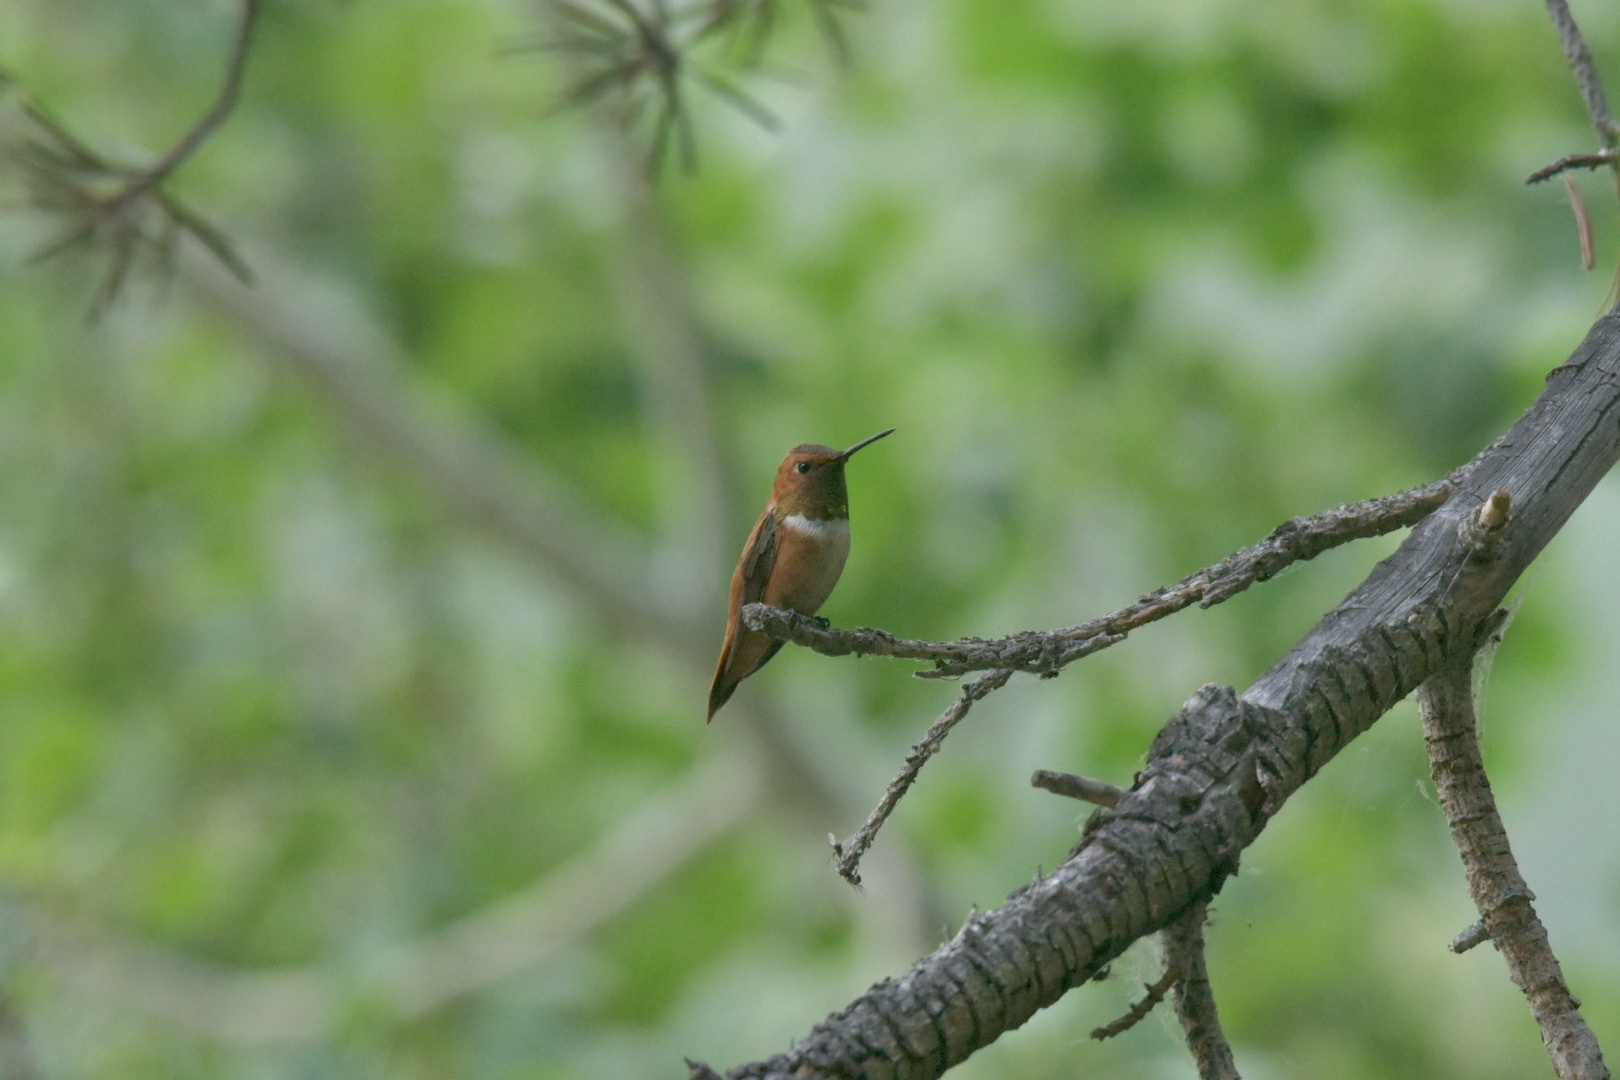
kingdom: Animalia
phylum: Chordata
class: Aves
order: Apodiformes
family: Trochilidae
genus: Selasphorus
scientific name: Selasphorus rufus
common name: Rufous hummingbird
